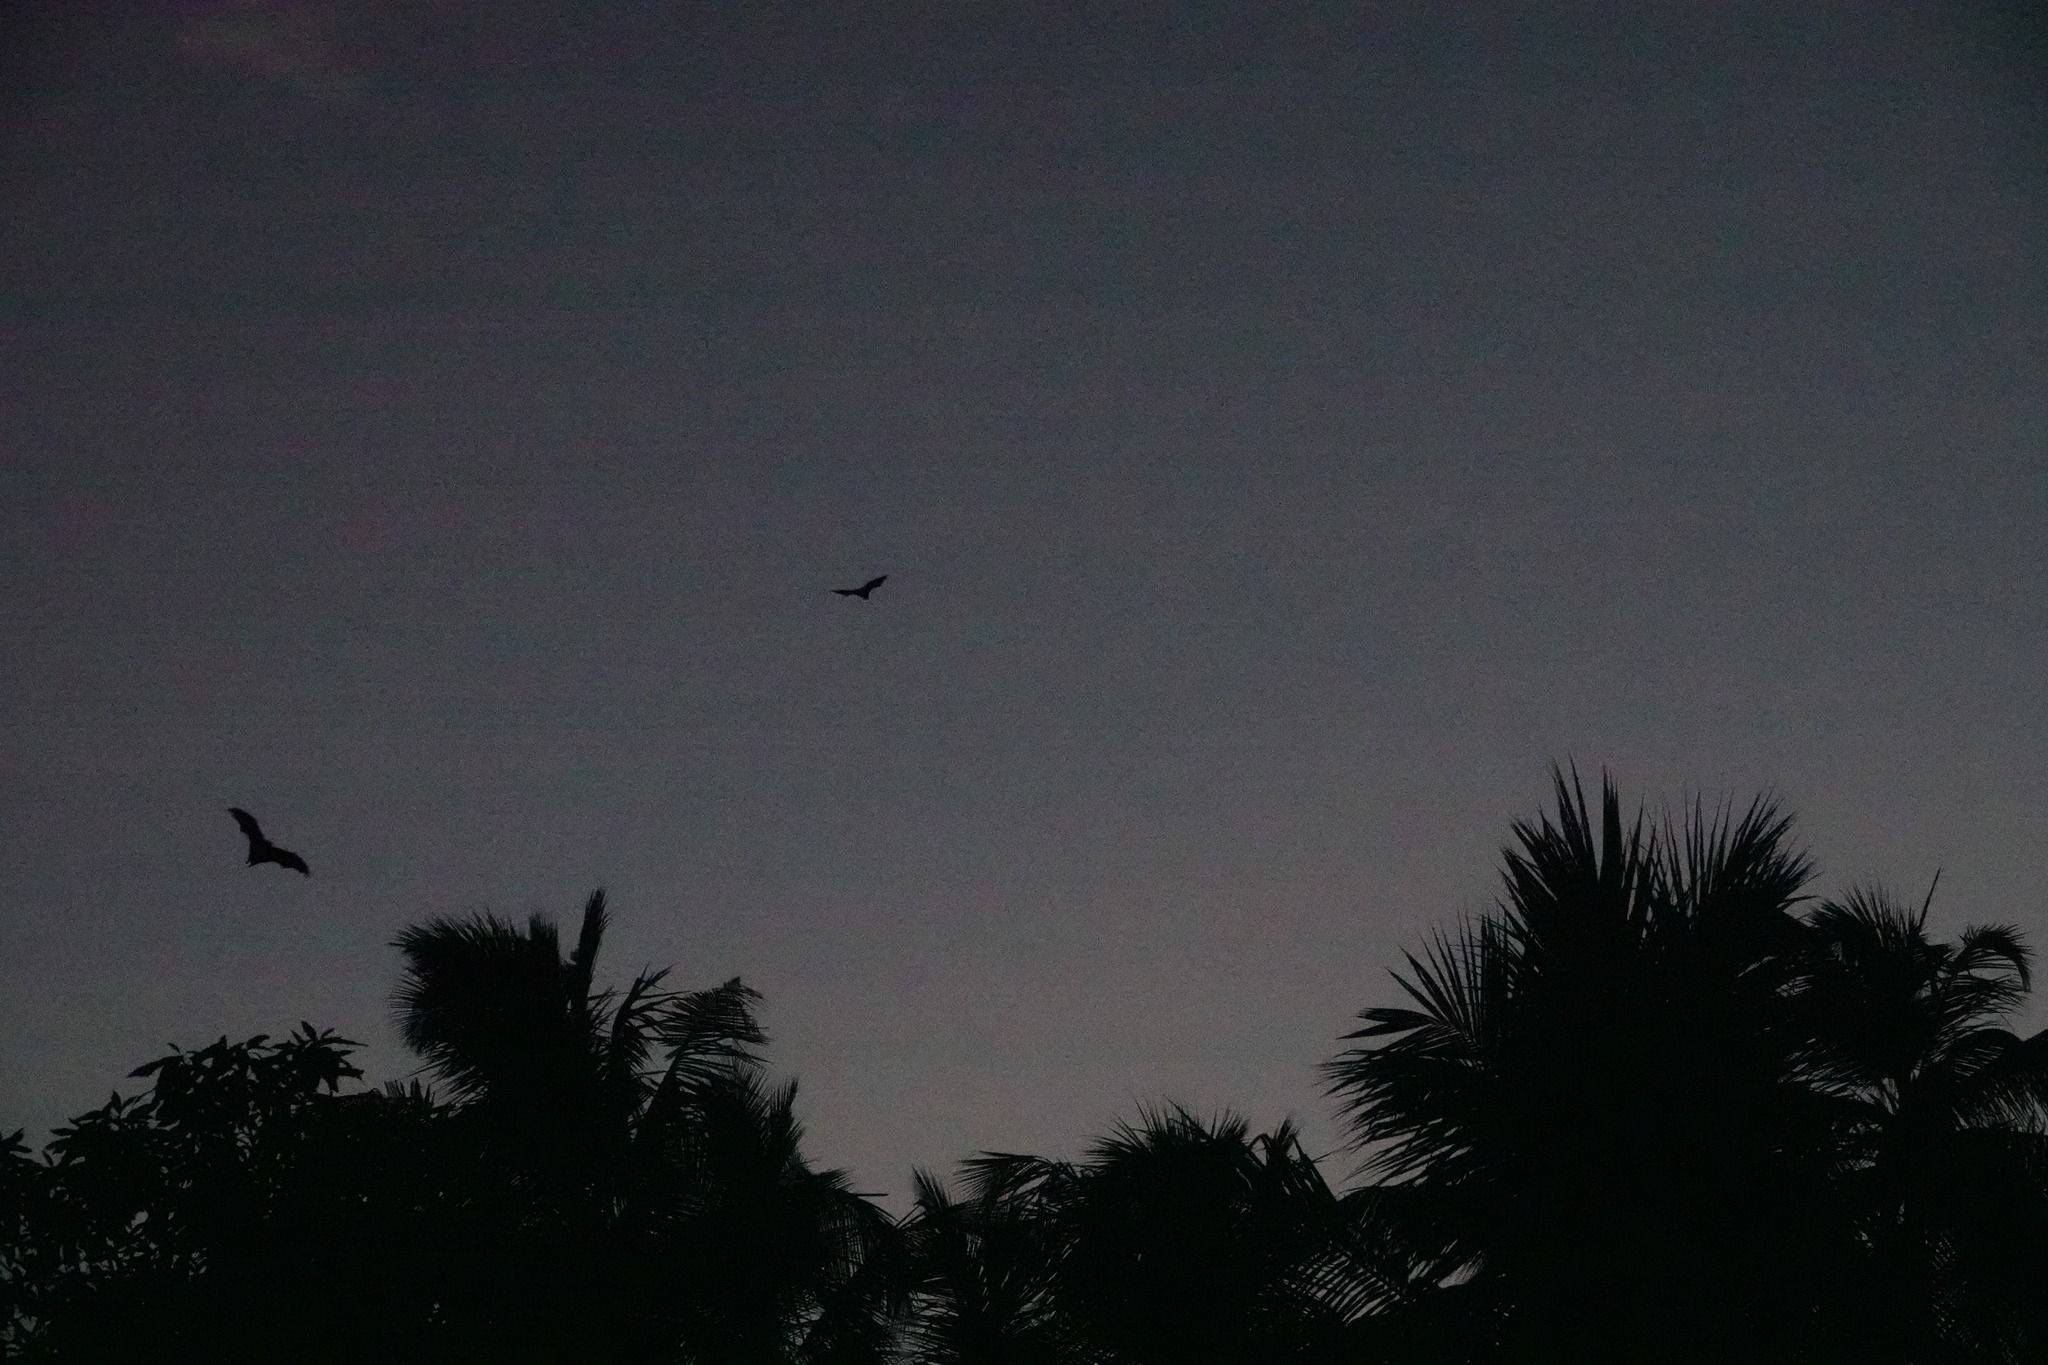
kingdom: Animalia
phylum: Chordata
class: Mammalia
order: Chiroptera
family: Pteropodidae
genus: Pteropus
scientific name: Pteropus vampyrus
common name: Large flying fox
